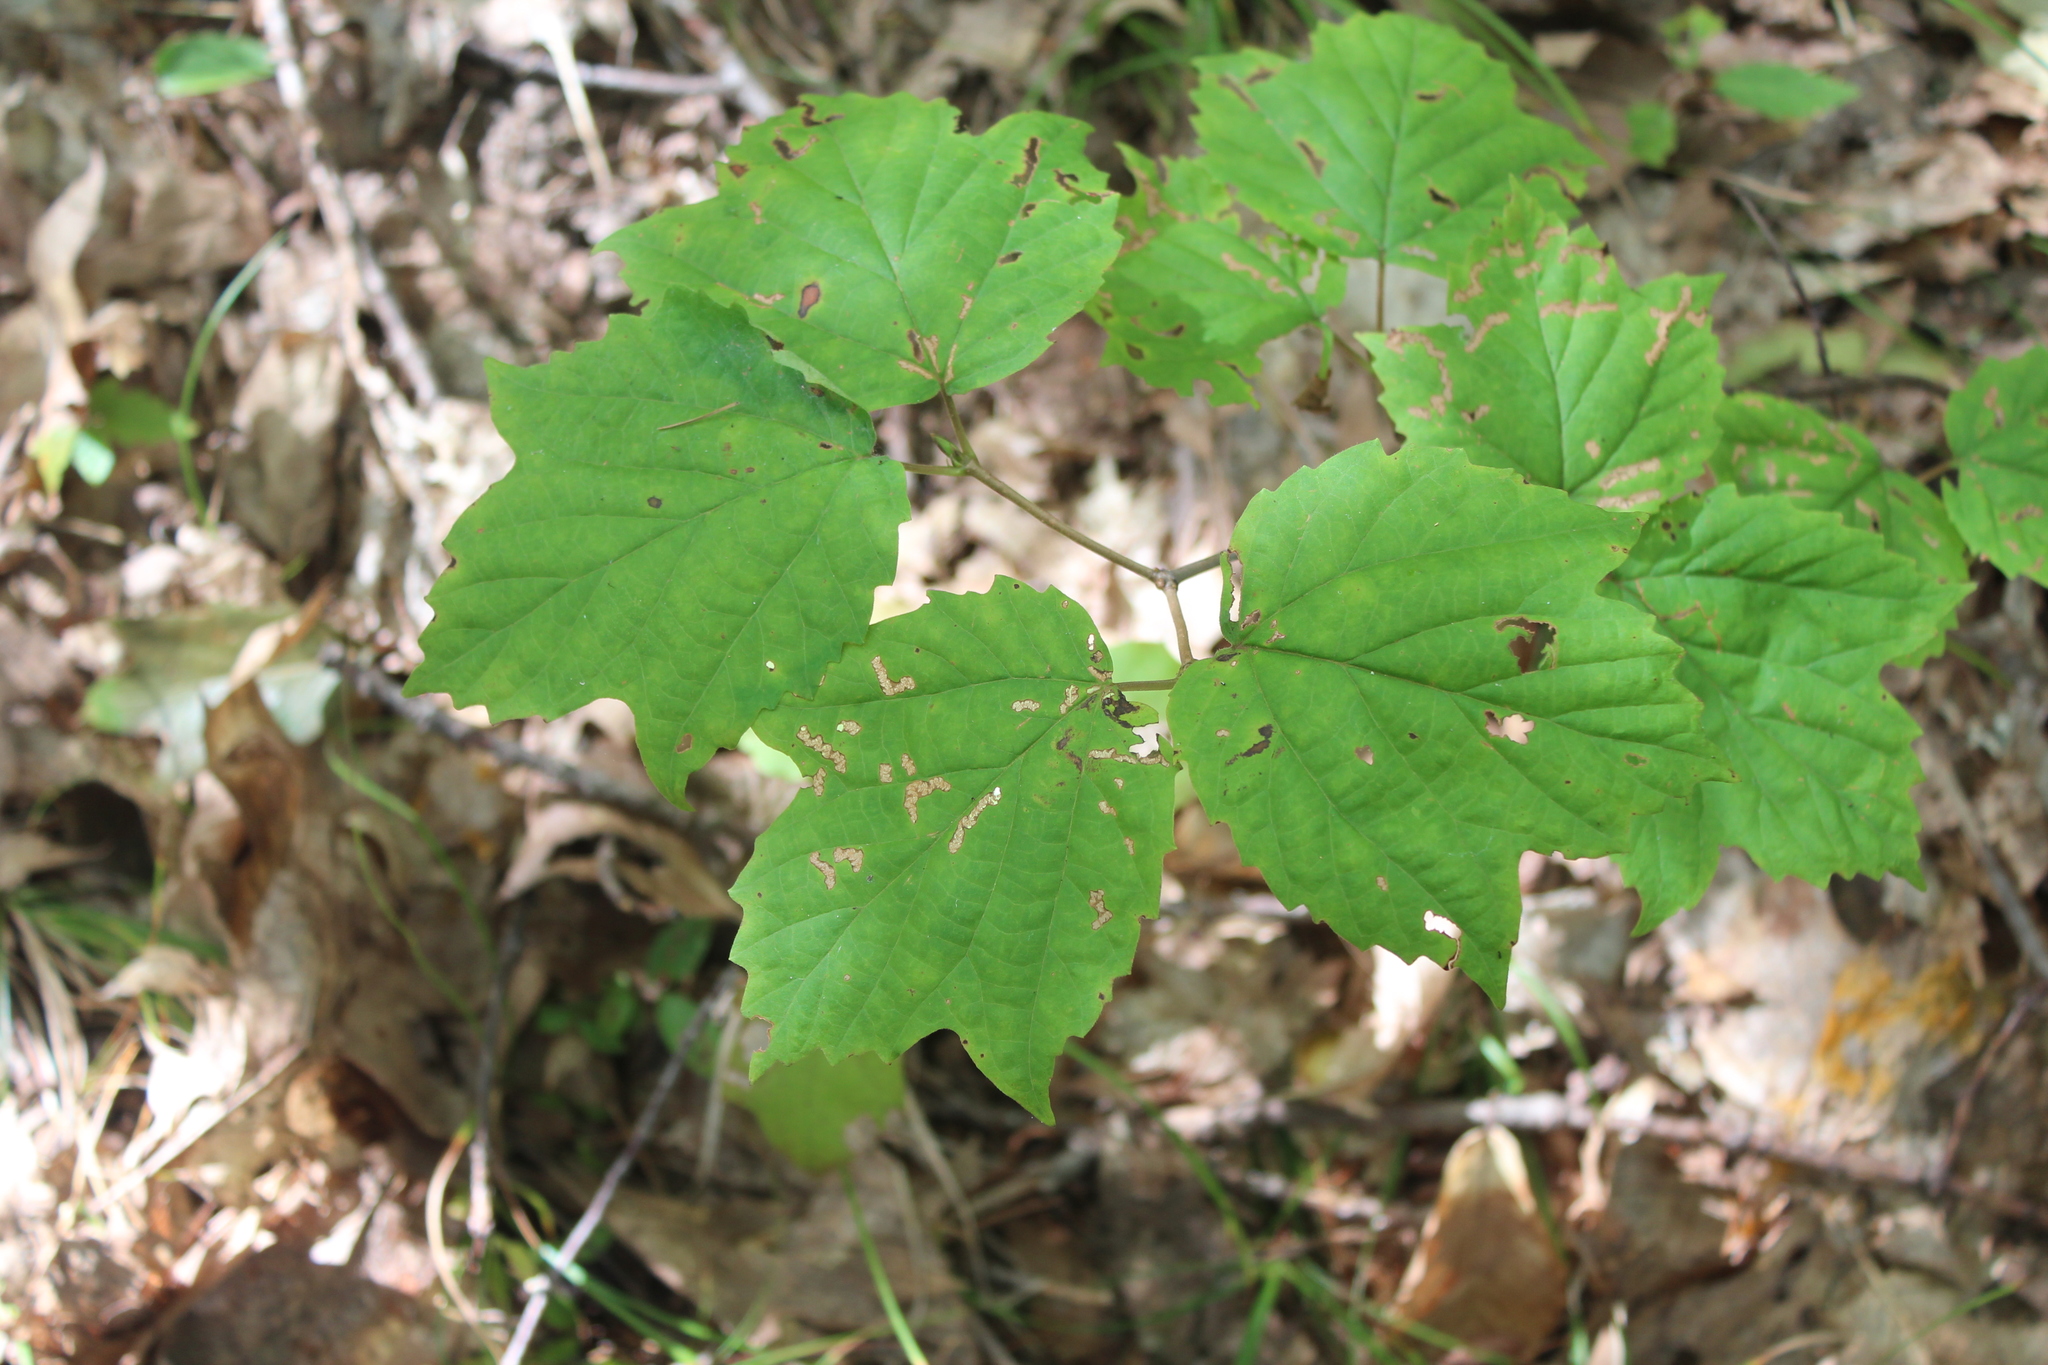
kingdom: Plantae
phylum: Tracheophyta
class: Magnoliopsida
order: Dipsacales
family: Viburnaceae
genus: Viburnum
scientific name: Viburnum acerifolium
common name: Dockmackie
